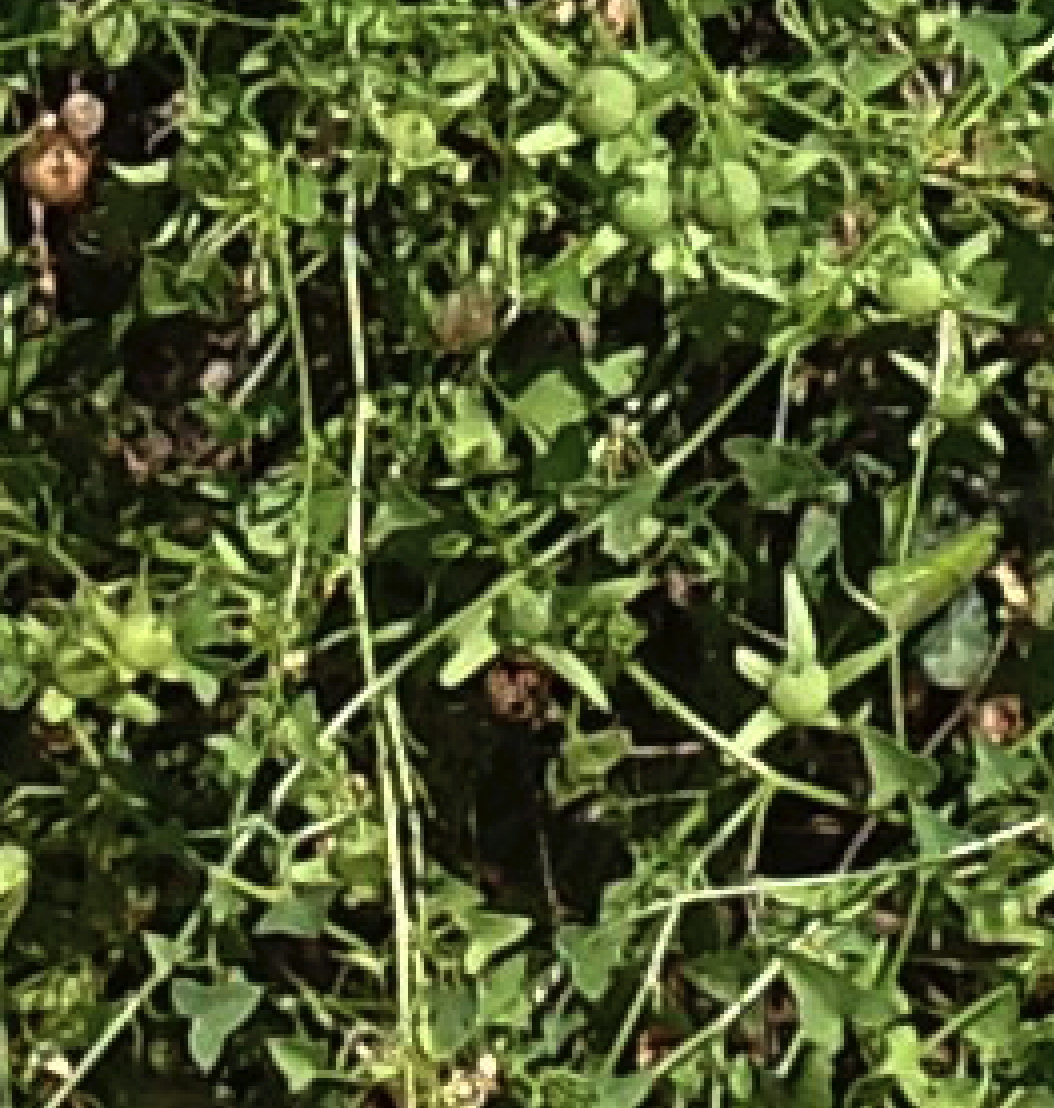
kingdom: Plantae
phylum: Tracheophyta
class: Magnoliopsida
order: Lamiales
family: Plantaginaceae
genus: Maurandella
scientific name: Maurandella antirrhiniflora
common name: Violet twining-snapdragon
